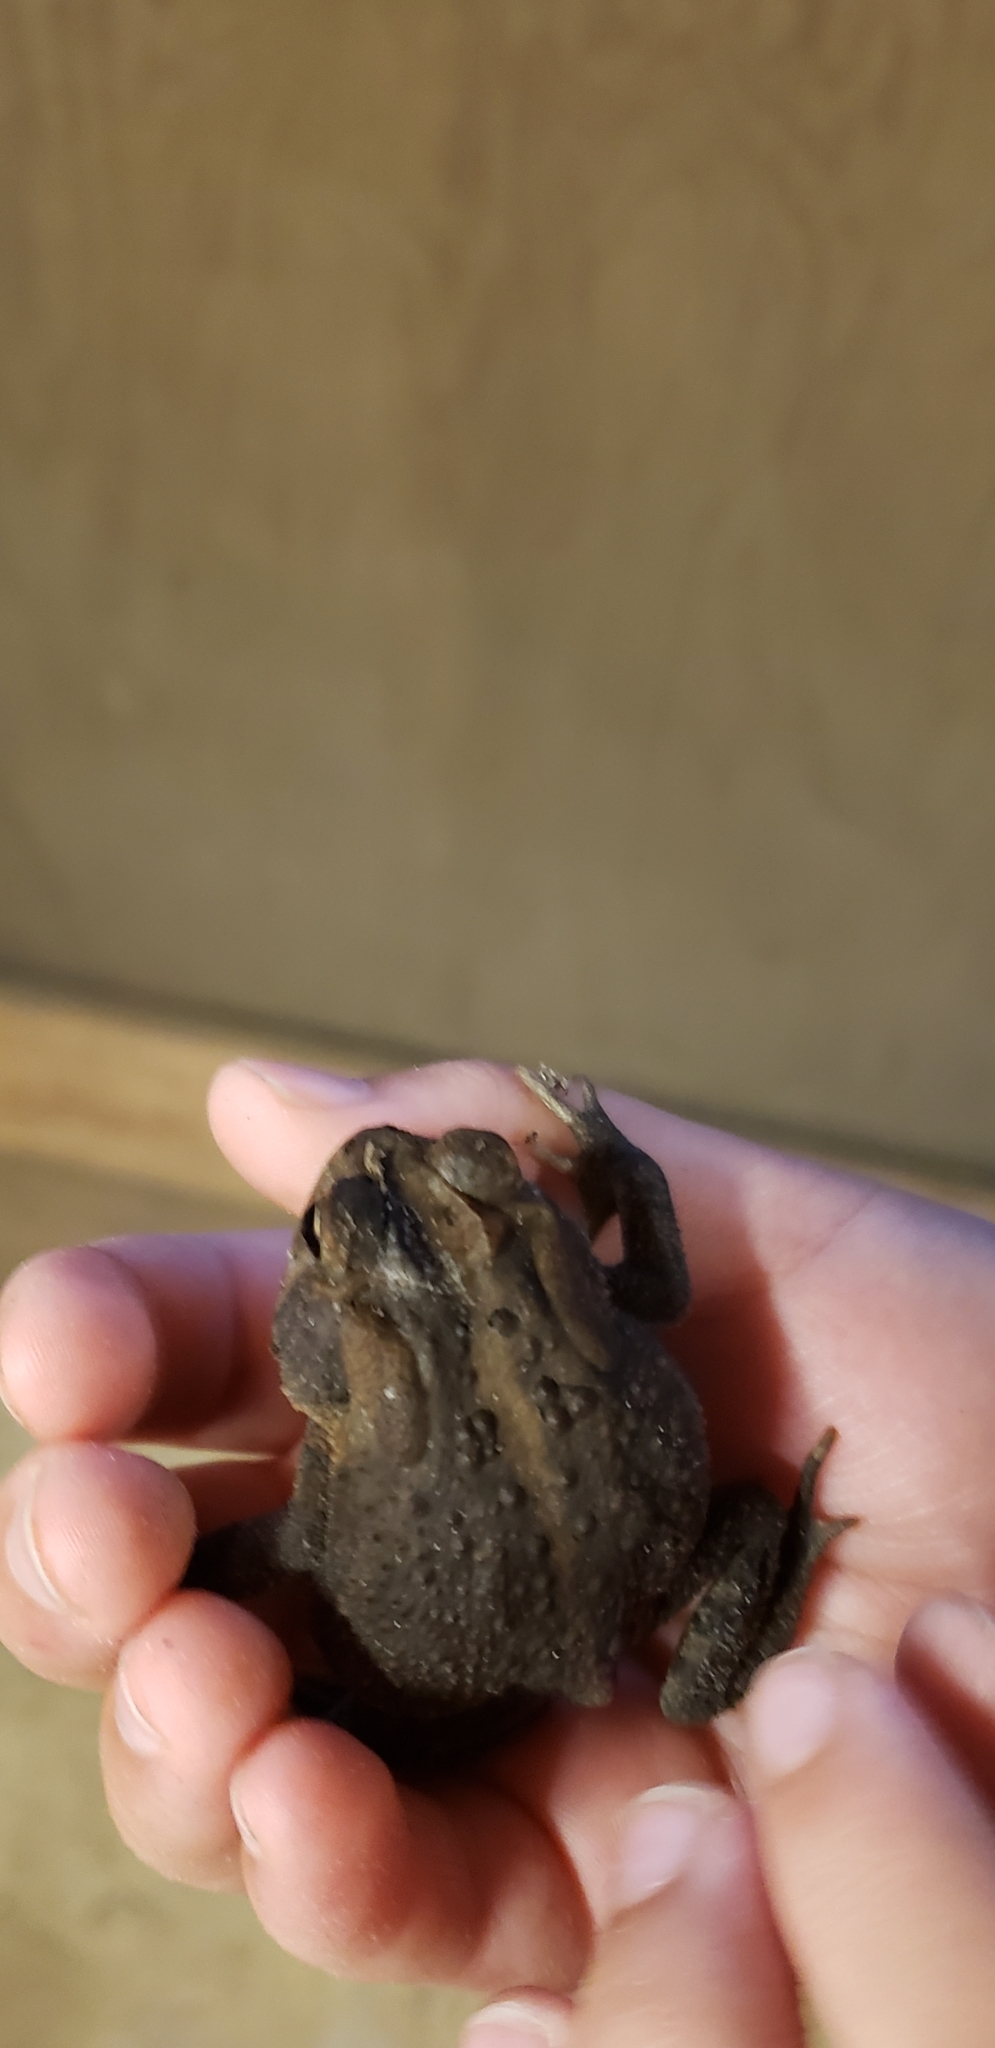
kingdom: Animalia
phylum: Chordata
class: Amphibia
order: Anura
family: Bufonidae
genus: Anaxyrus
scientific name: Anaxyrus terrestris
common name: Southern toad
